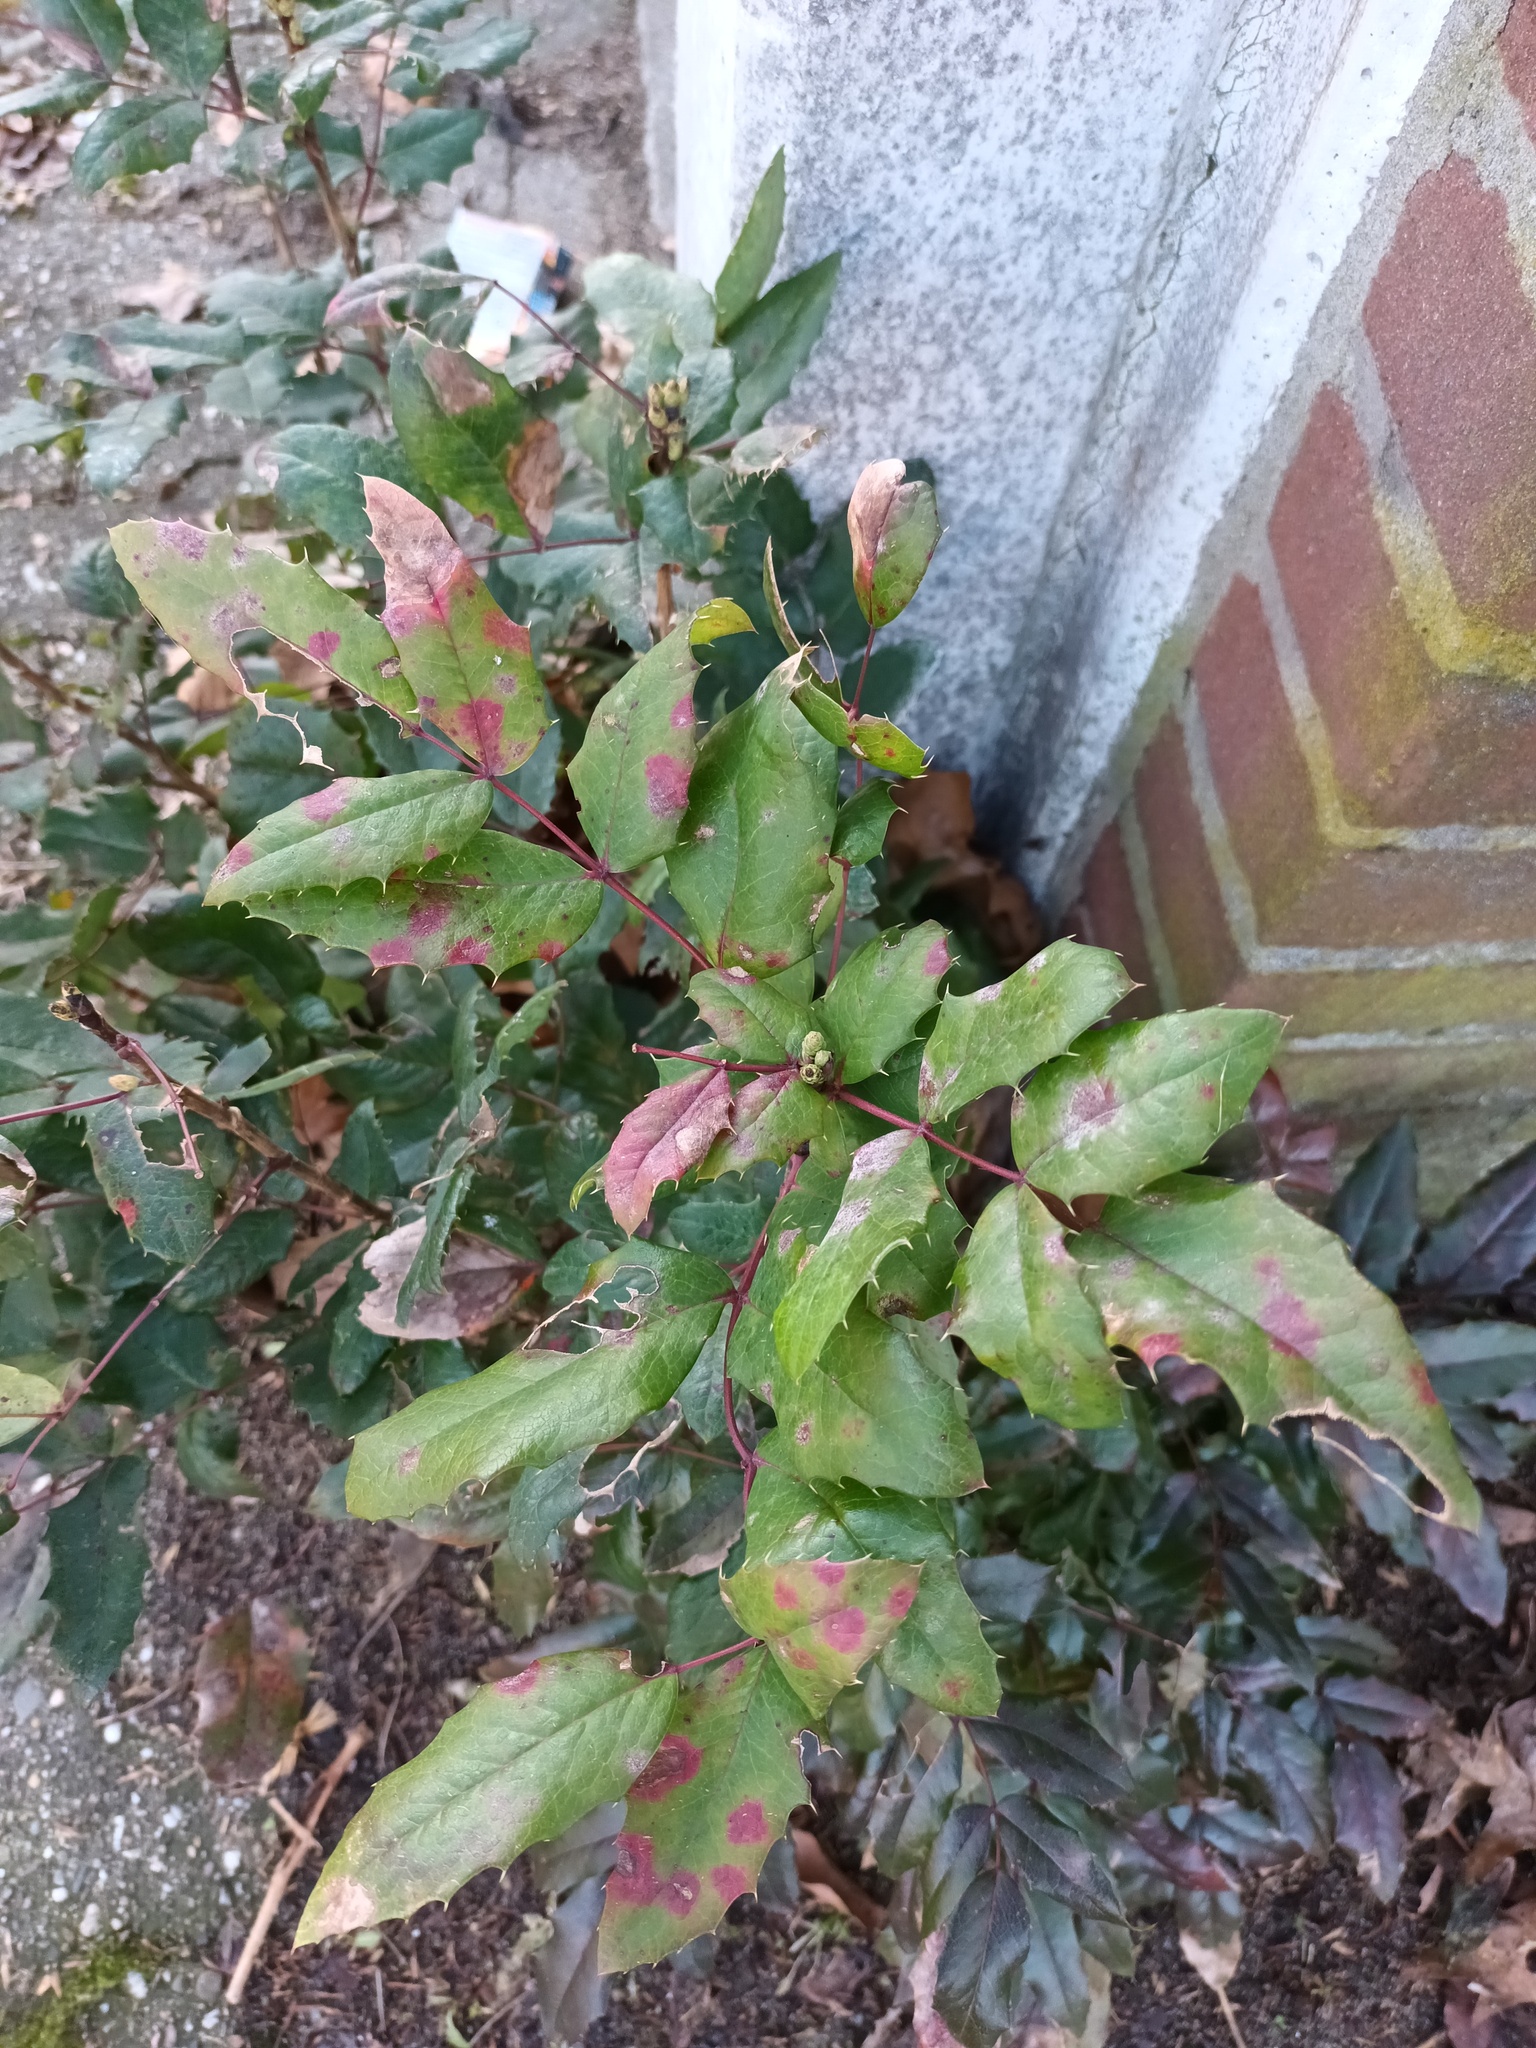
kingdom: Plantae
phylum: Tracheophyta
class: Magnoliopsida
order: Ranunculales
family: Berberidaceae
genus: Mahonia
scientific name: Mahonia aquifolium
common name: Oregon-grape
